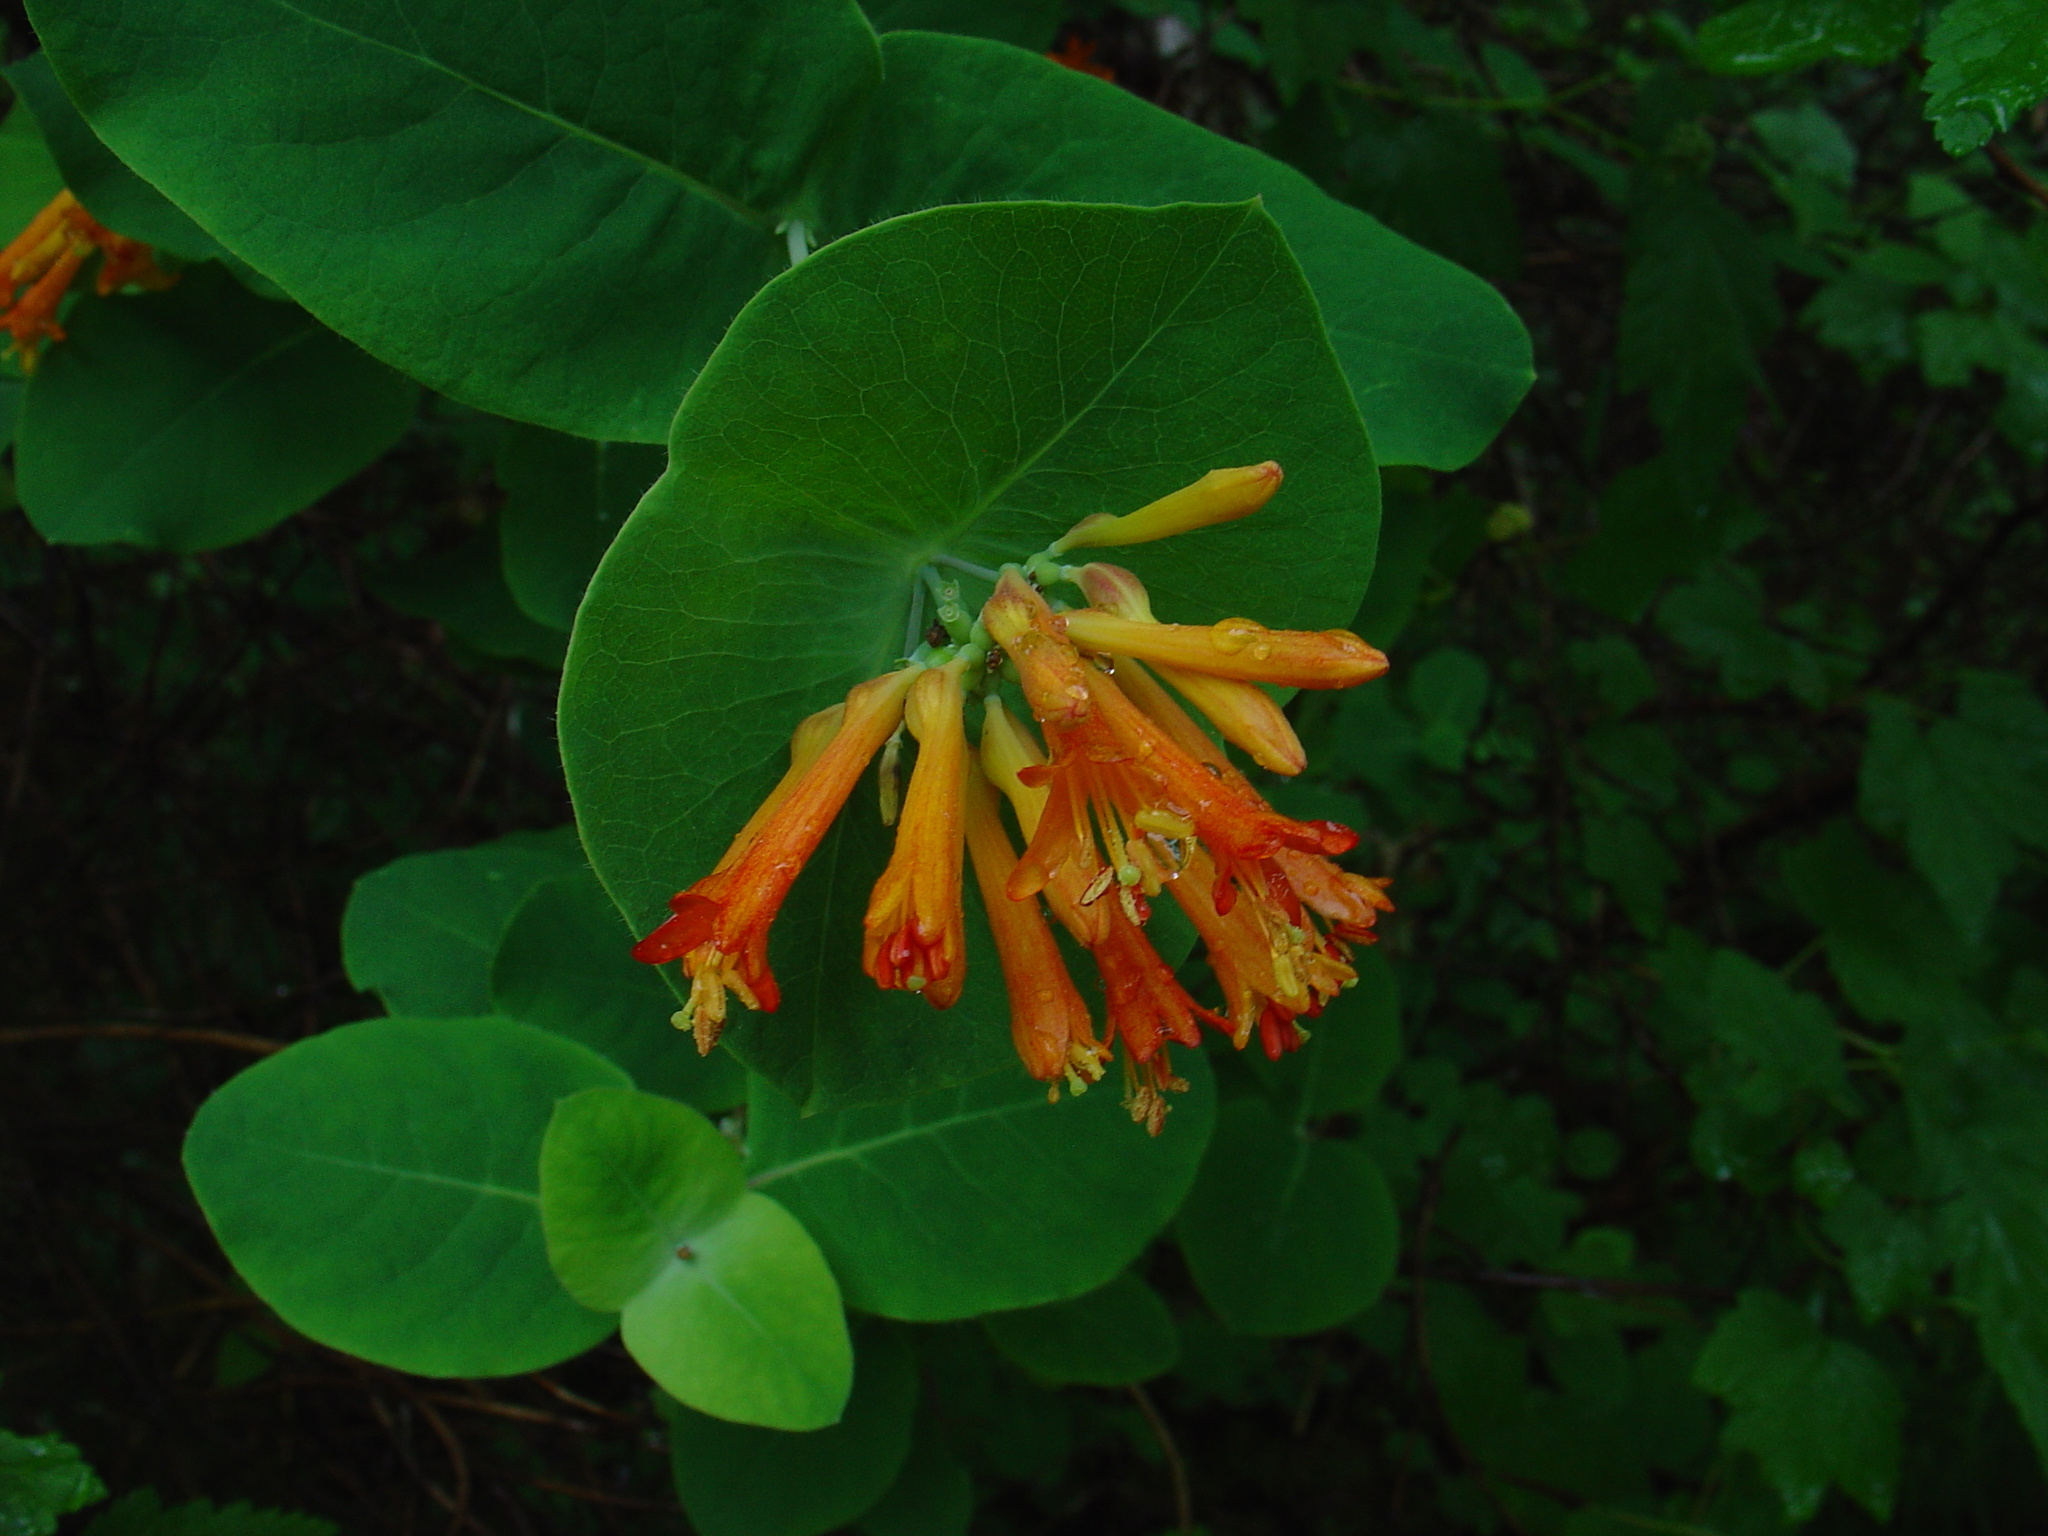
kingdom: Plantae
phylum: Tracheophyta
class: Magnoliopsida
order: Dipsacales
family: Caprifoliaceae
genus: Lonicera
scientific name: Lonicera ciliosa
